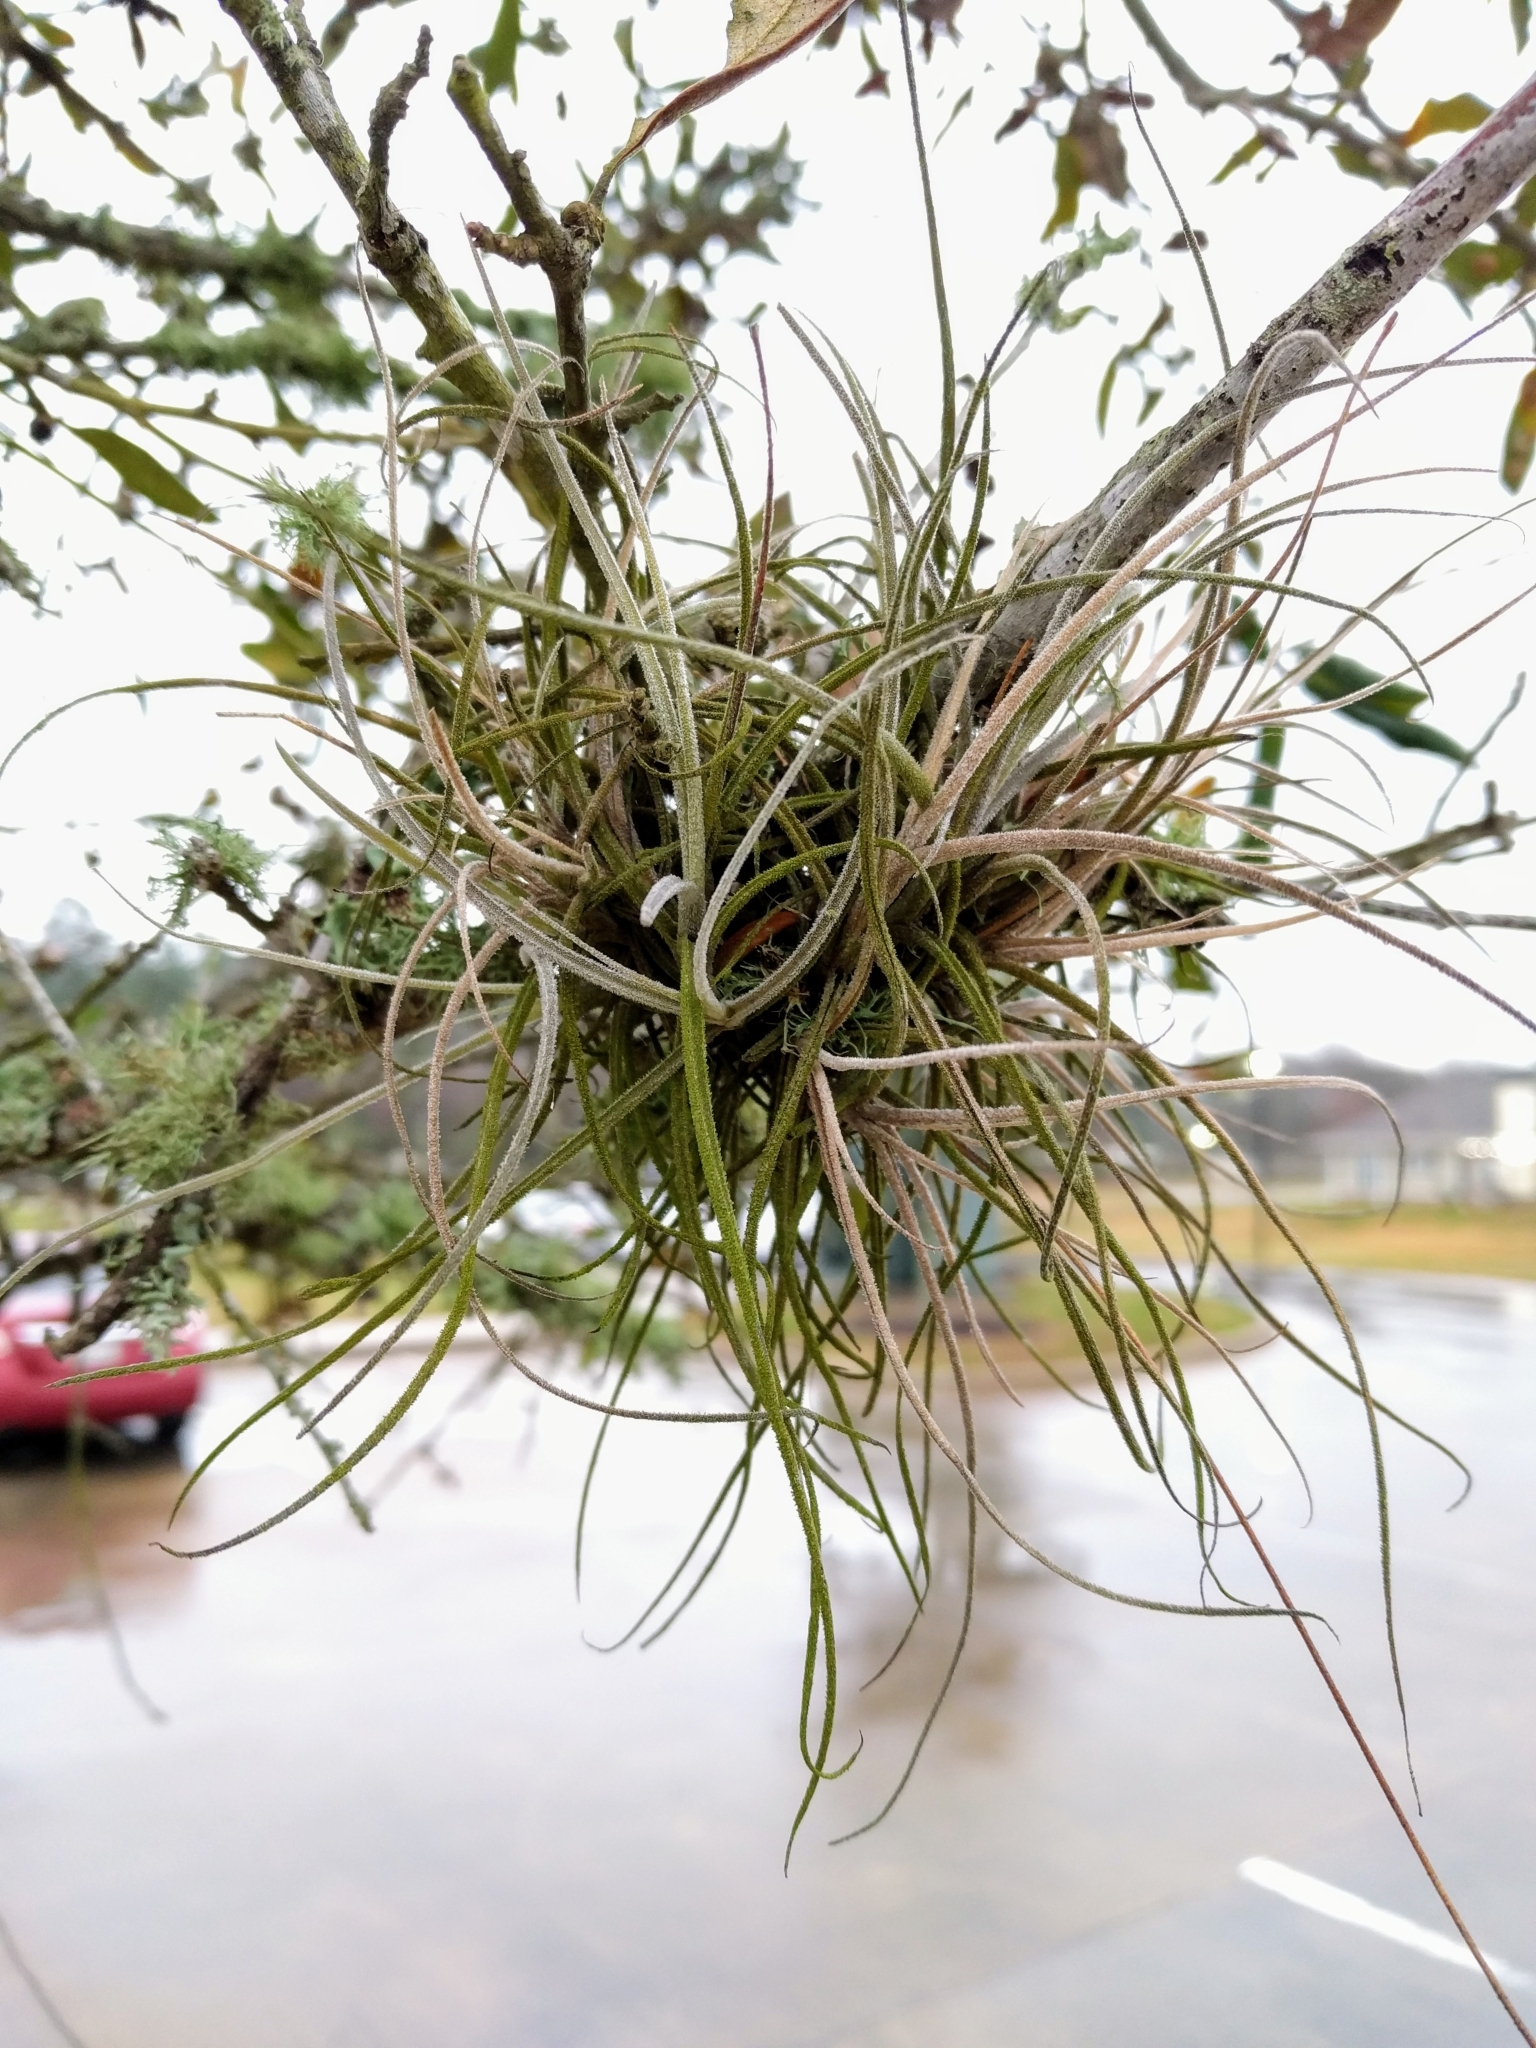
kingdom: Plantae
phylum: Tracheophyta
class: Liliopsida
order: Poales
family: Bromeliaceae
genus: Tillandsia
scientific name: Tillandsia recurvata
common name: Small ballmoss
